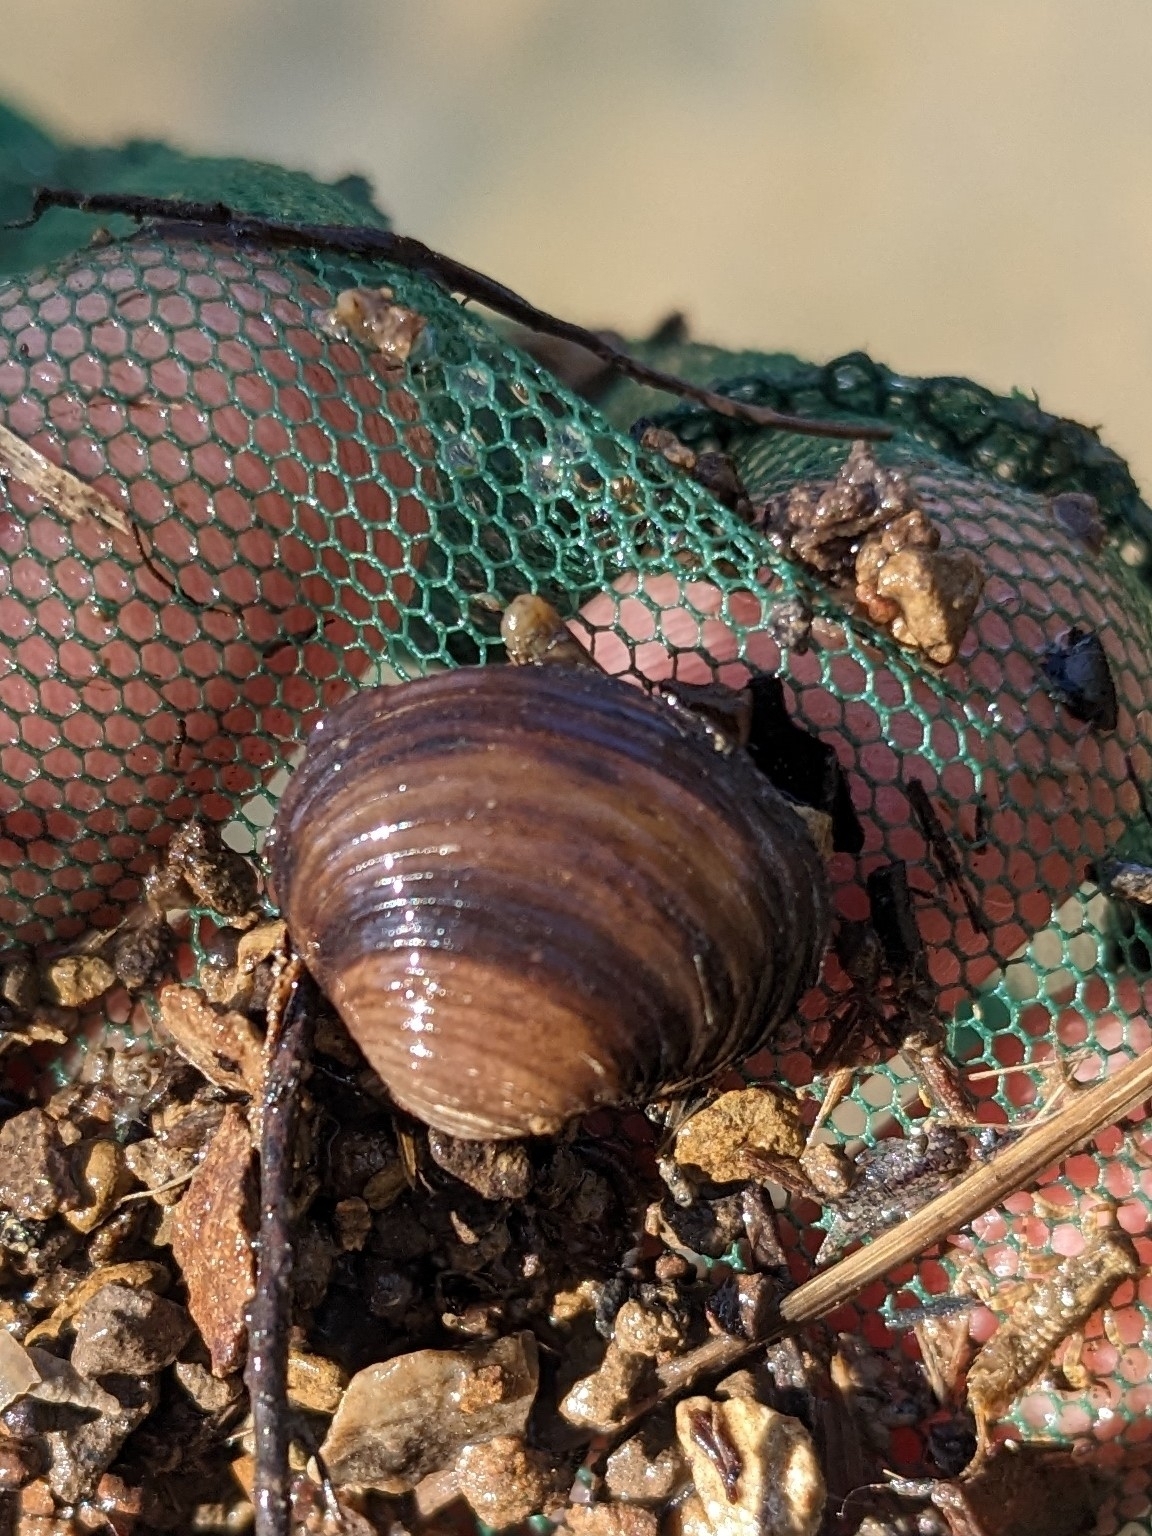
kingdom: Animalia
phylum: Mollusca
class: Bivalvia
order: Venerida
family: Cyrenidae
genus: Corbicula
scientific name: Corbicula fluminea
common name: Asian clam
